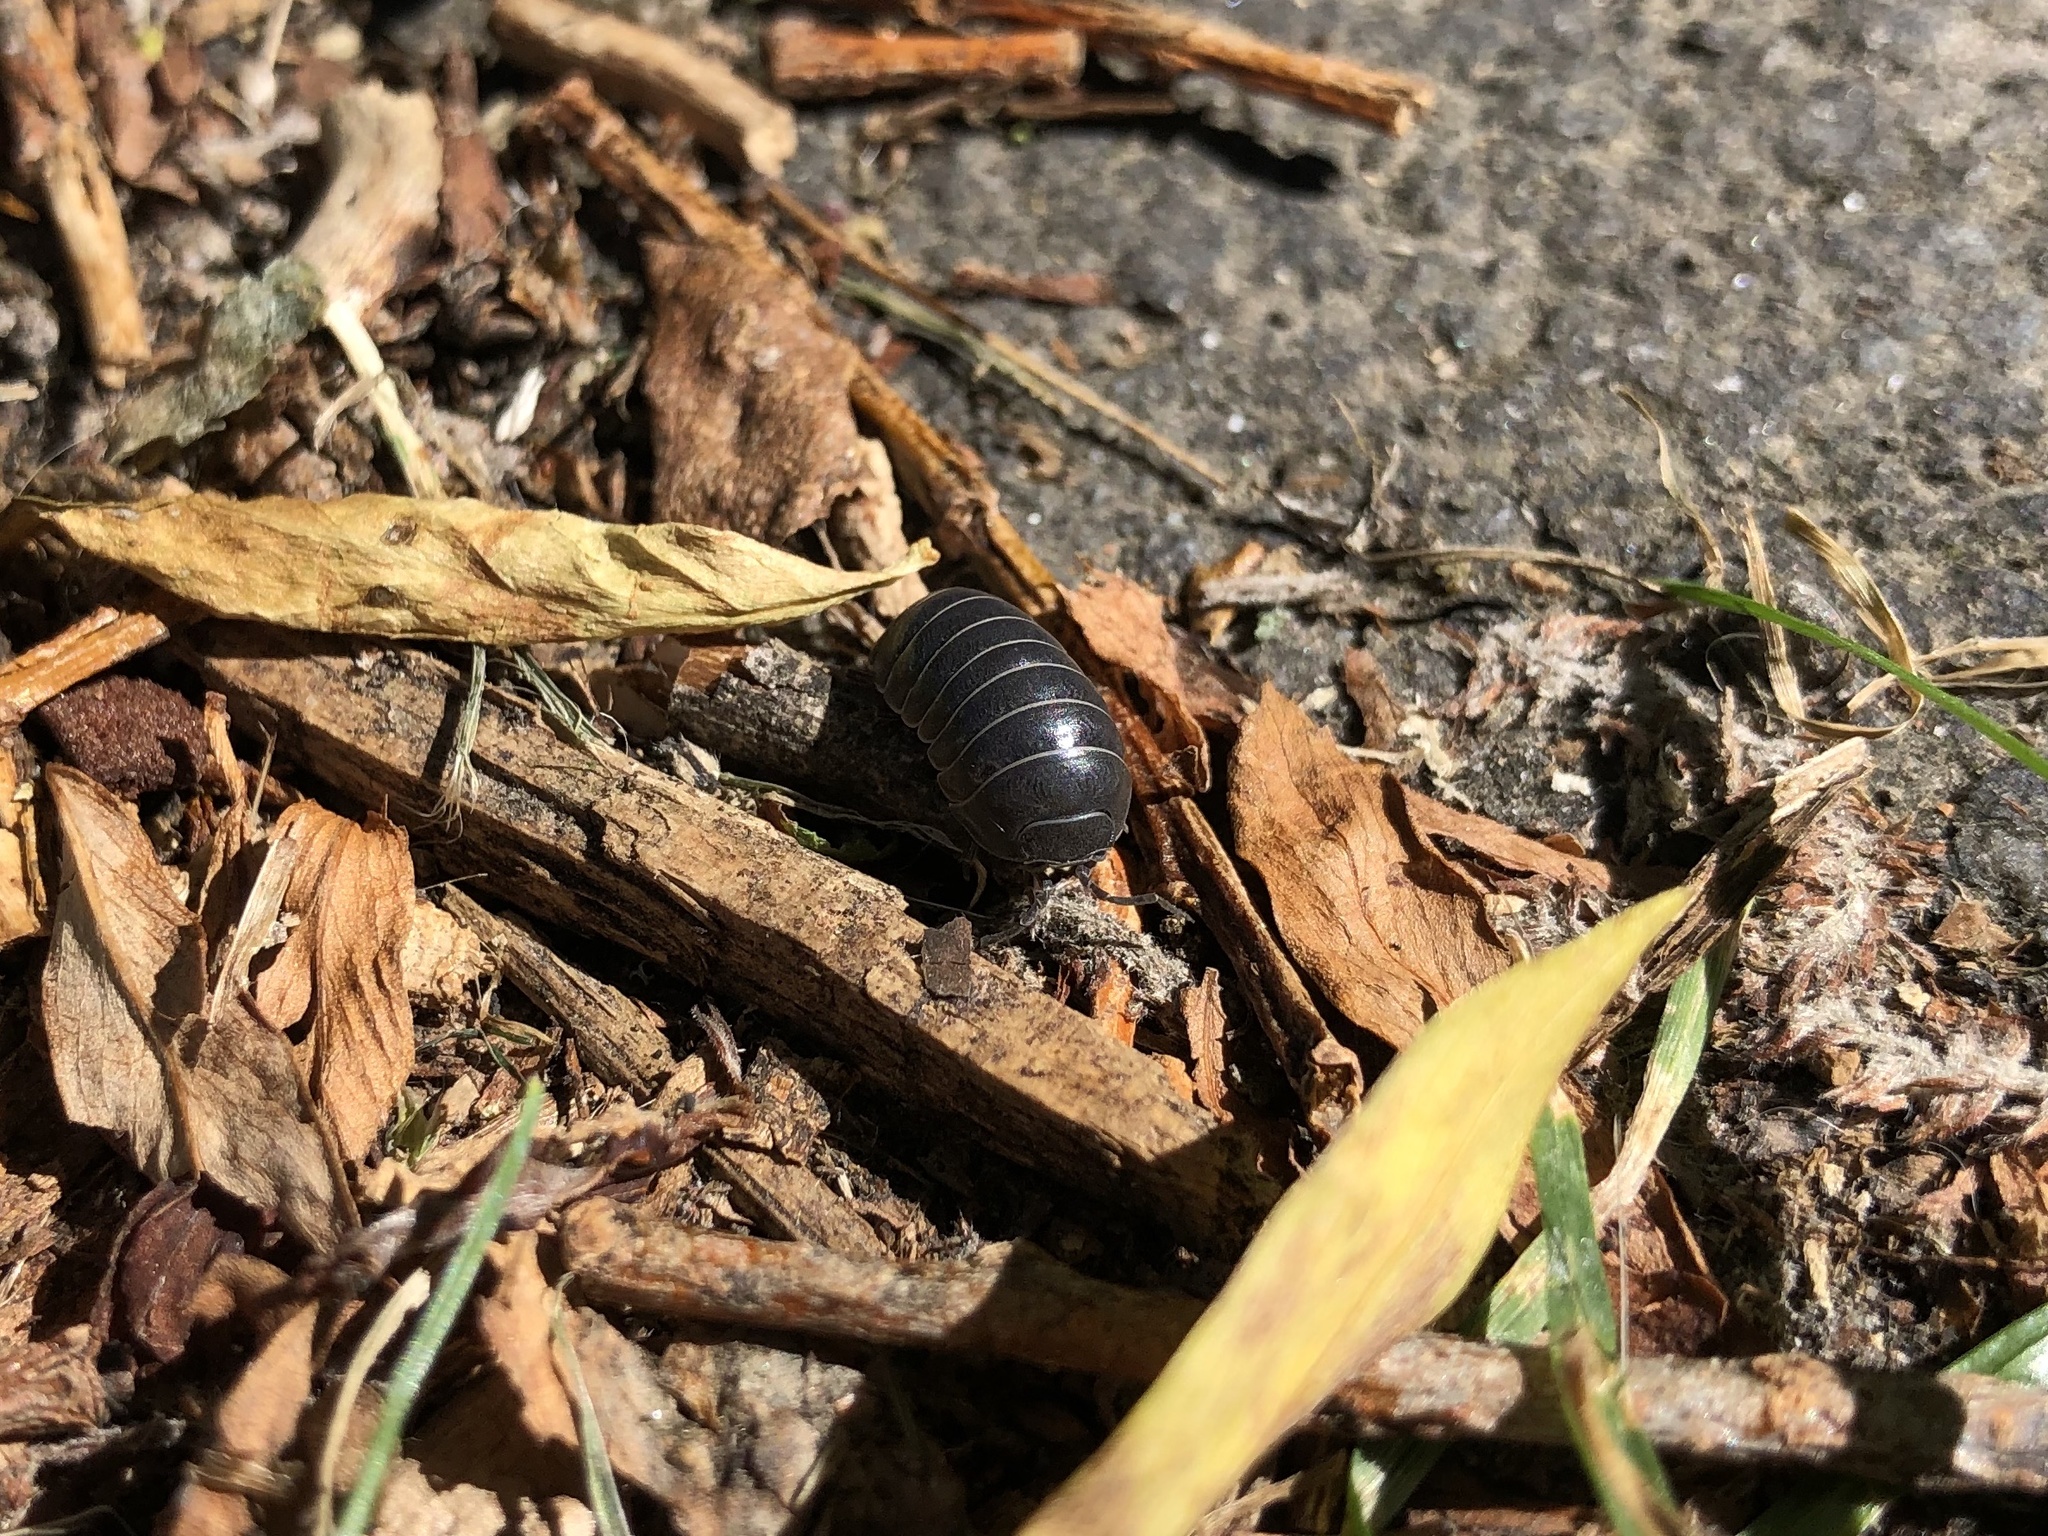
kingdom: Animalia
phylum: Arthropoda
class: Malacostraca
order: Isopoda
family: Armadillidiidae
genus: Armadillidium
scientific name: Armadillidium vulgare
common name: Common pill woodlouse
